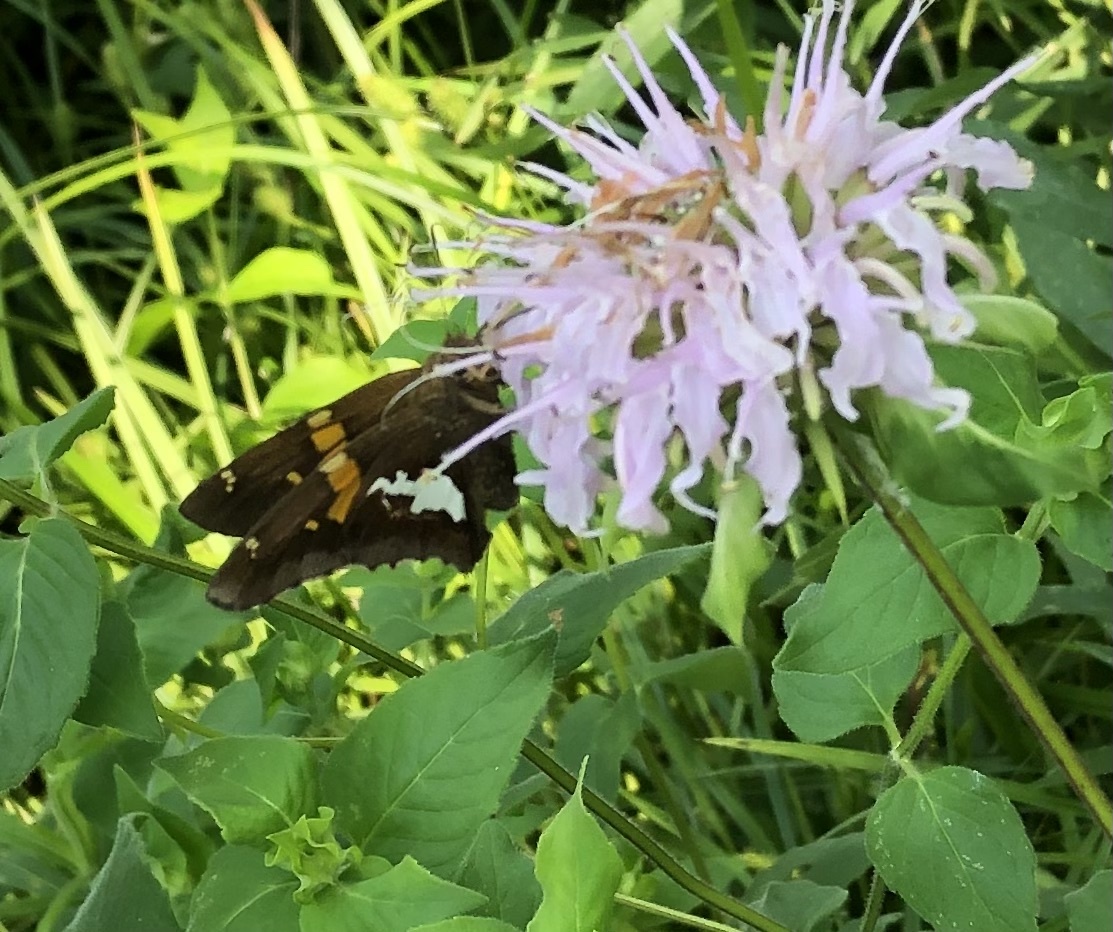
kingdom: Animalia
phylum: Arthropoda
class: Insecta
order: Lepidoptera
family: Hesperiidae
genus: Epargyreus
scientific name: Epargyreus clarus
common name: Silver-spotted skipper
